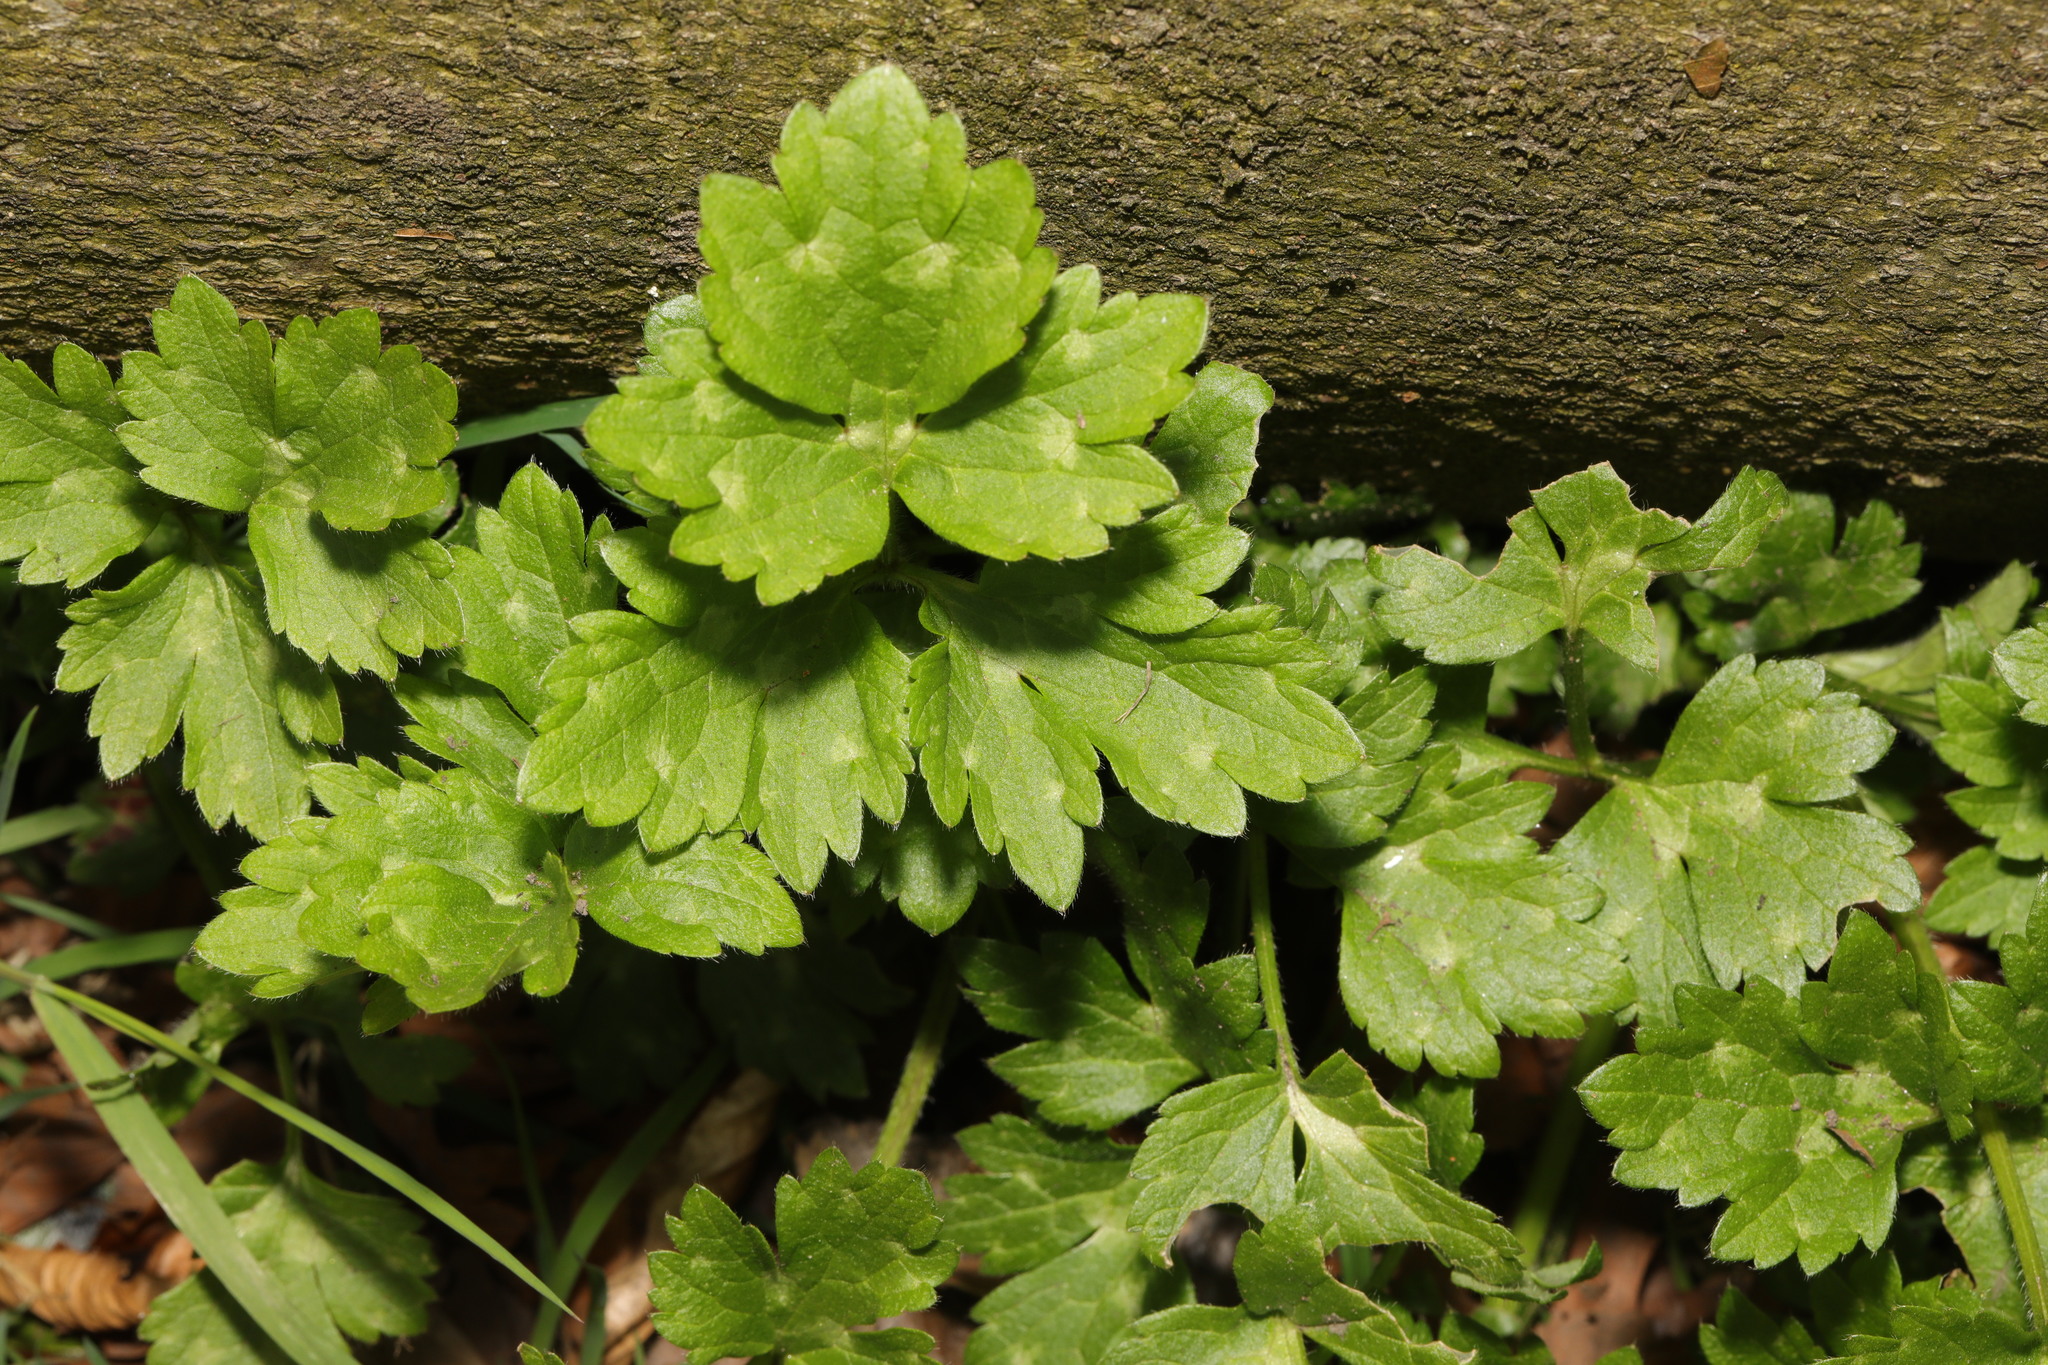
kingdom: Plantae
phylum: Tracheophyta
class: Magnoliopsida
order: Ranunculales
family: Ranunculaceae
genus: Ranunculus
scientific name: Ranunculus repens
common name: Creeping buttercup
